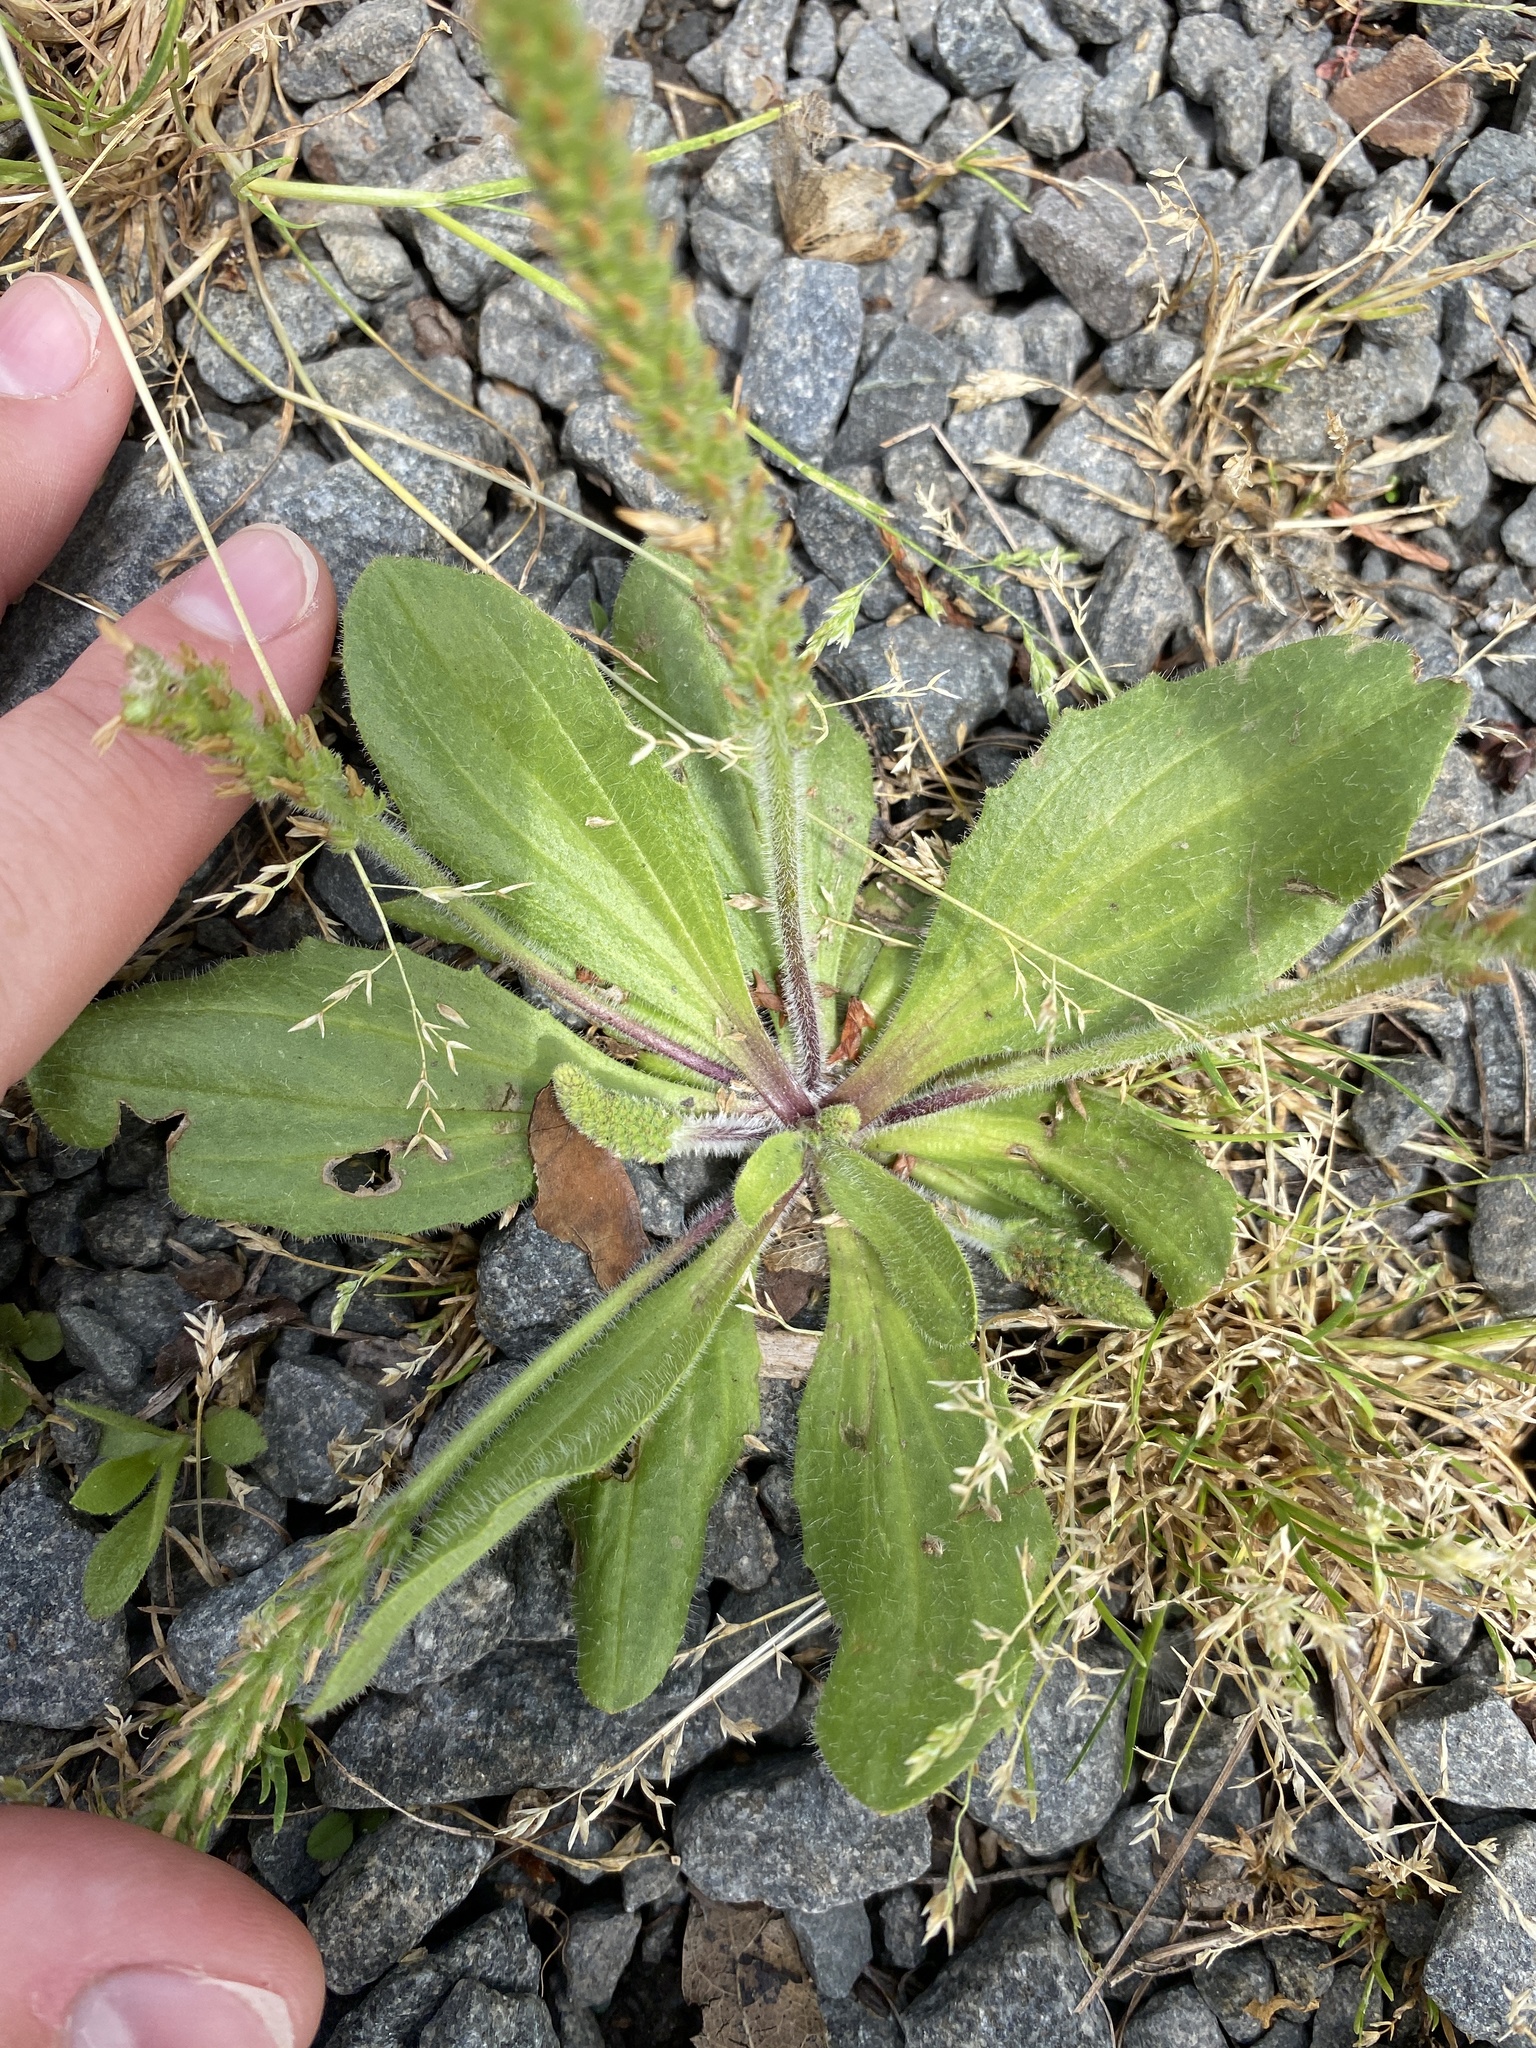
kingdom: Plantae
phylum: Tracheophyta
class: Magnoliopsida
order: Lamiales
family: Plantaginaceae
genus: Plantago
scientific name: Plantago virginica
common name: Hoary plantain
